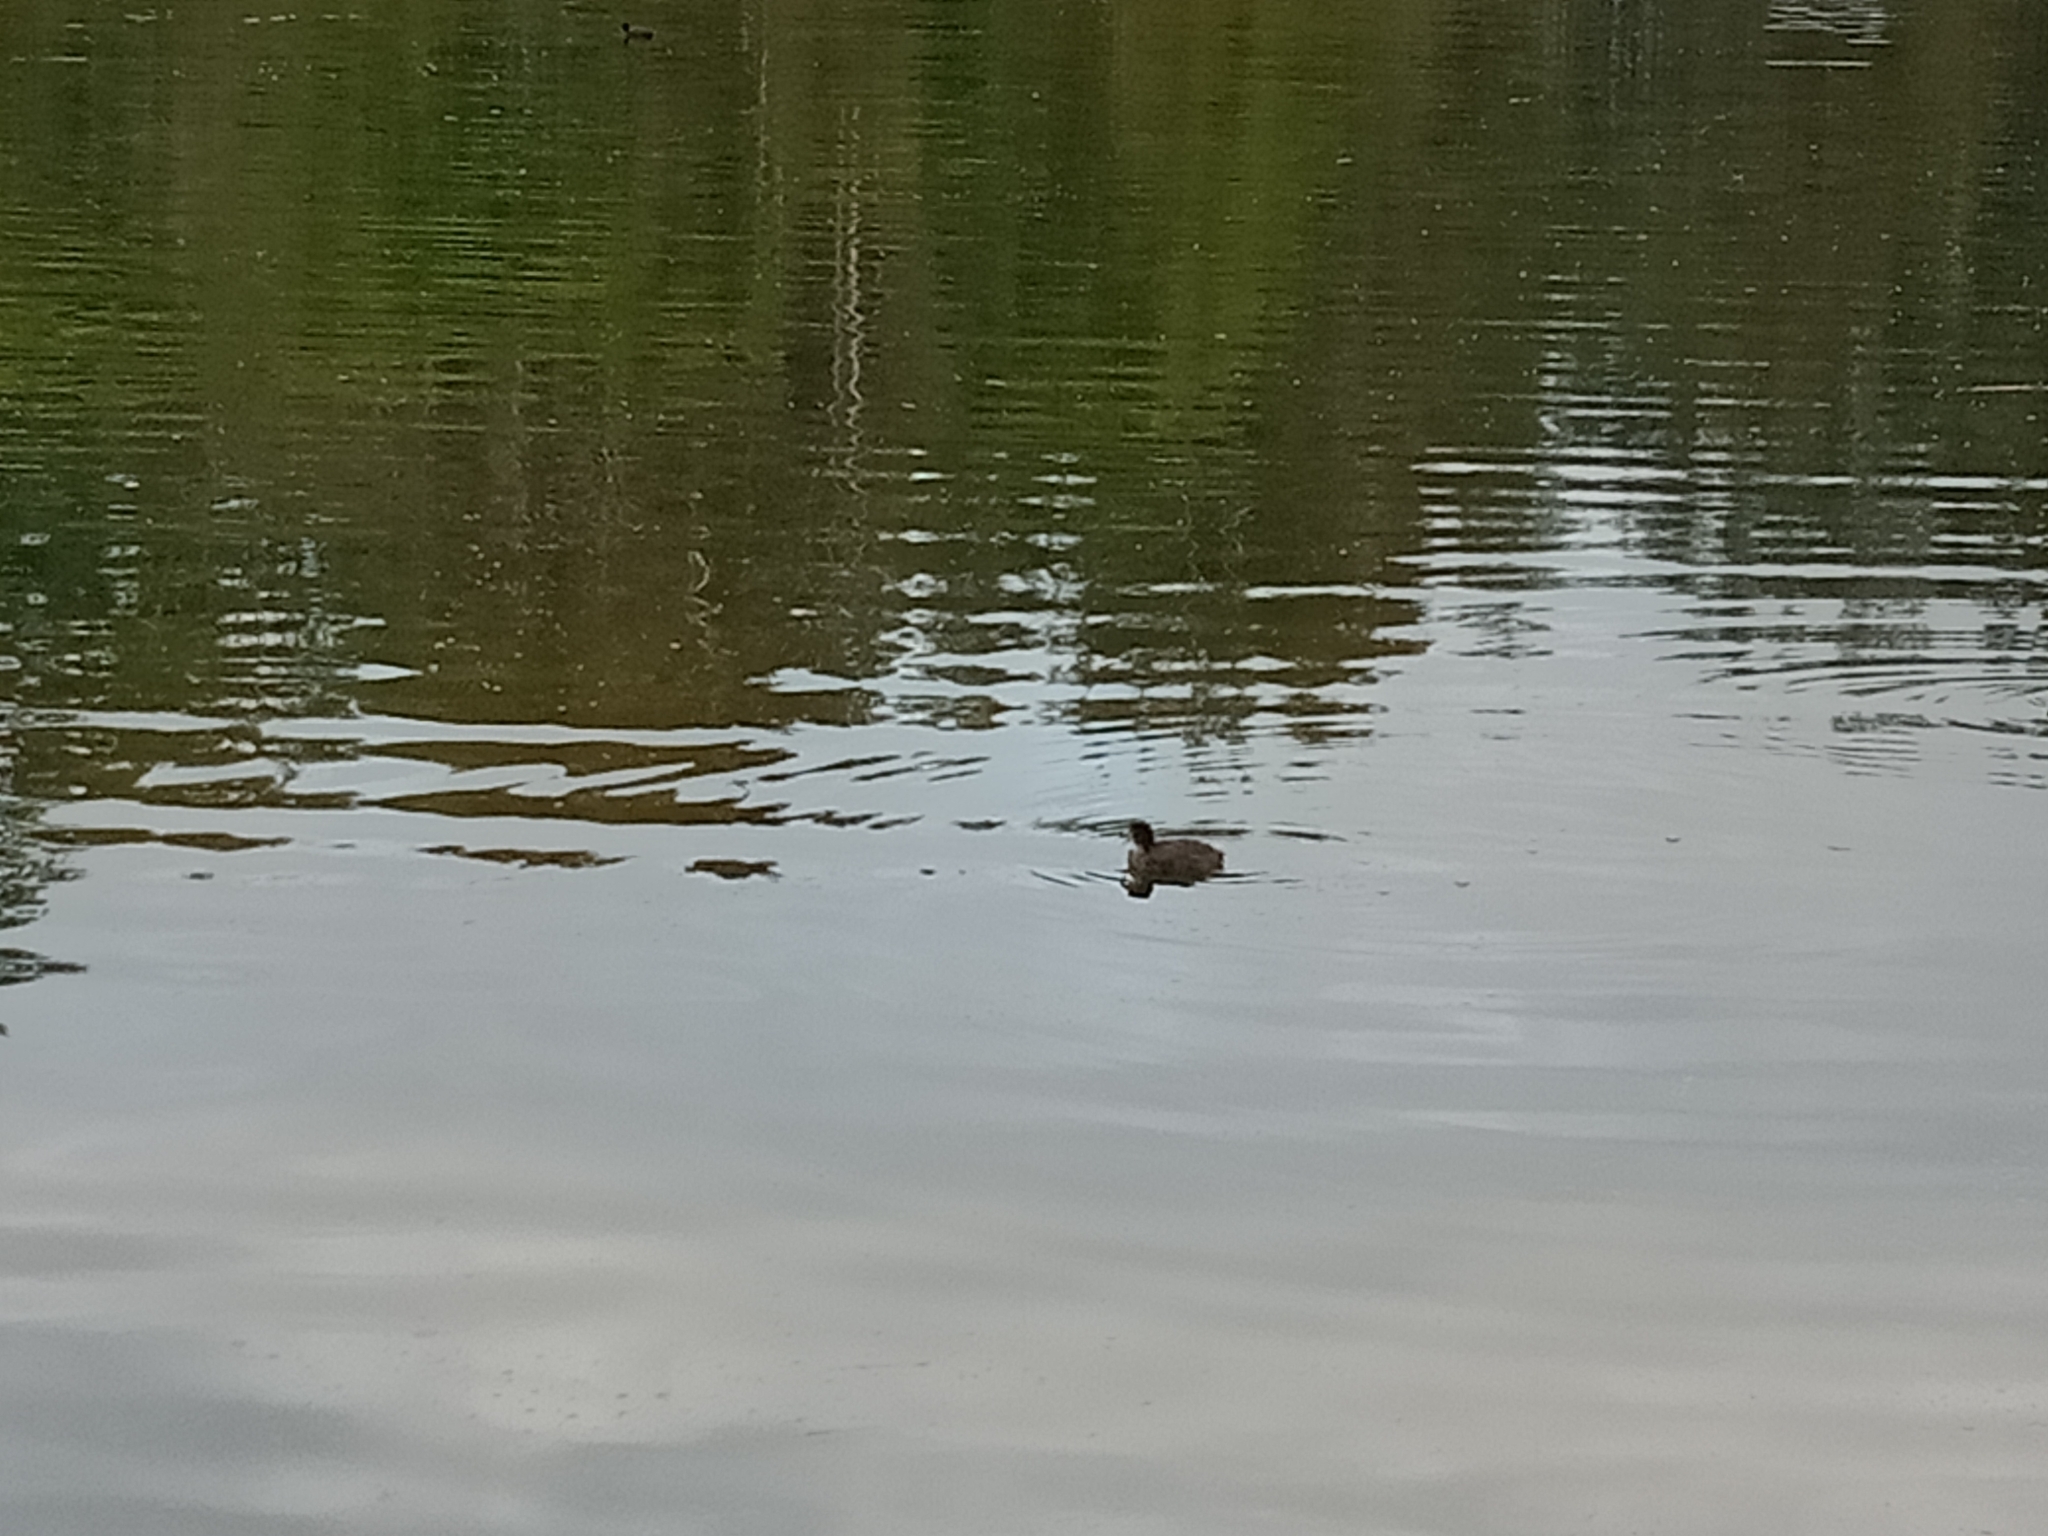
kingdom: Animalia
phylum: Chordata
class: Aves
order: Gruiformes
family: Rallidae
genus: Fulica
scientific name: Fulica atra
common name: Eurasian coot
